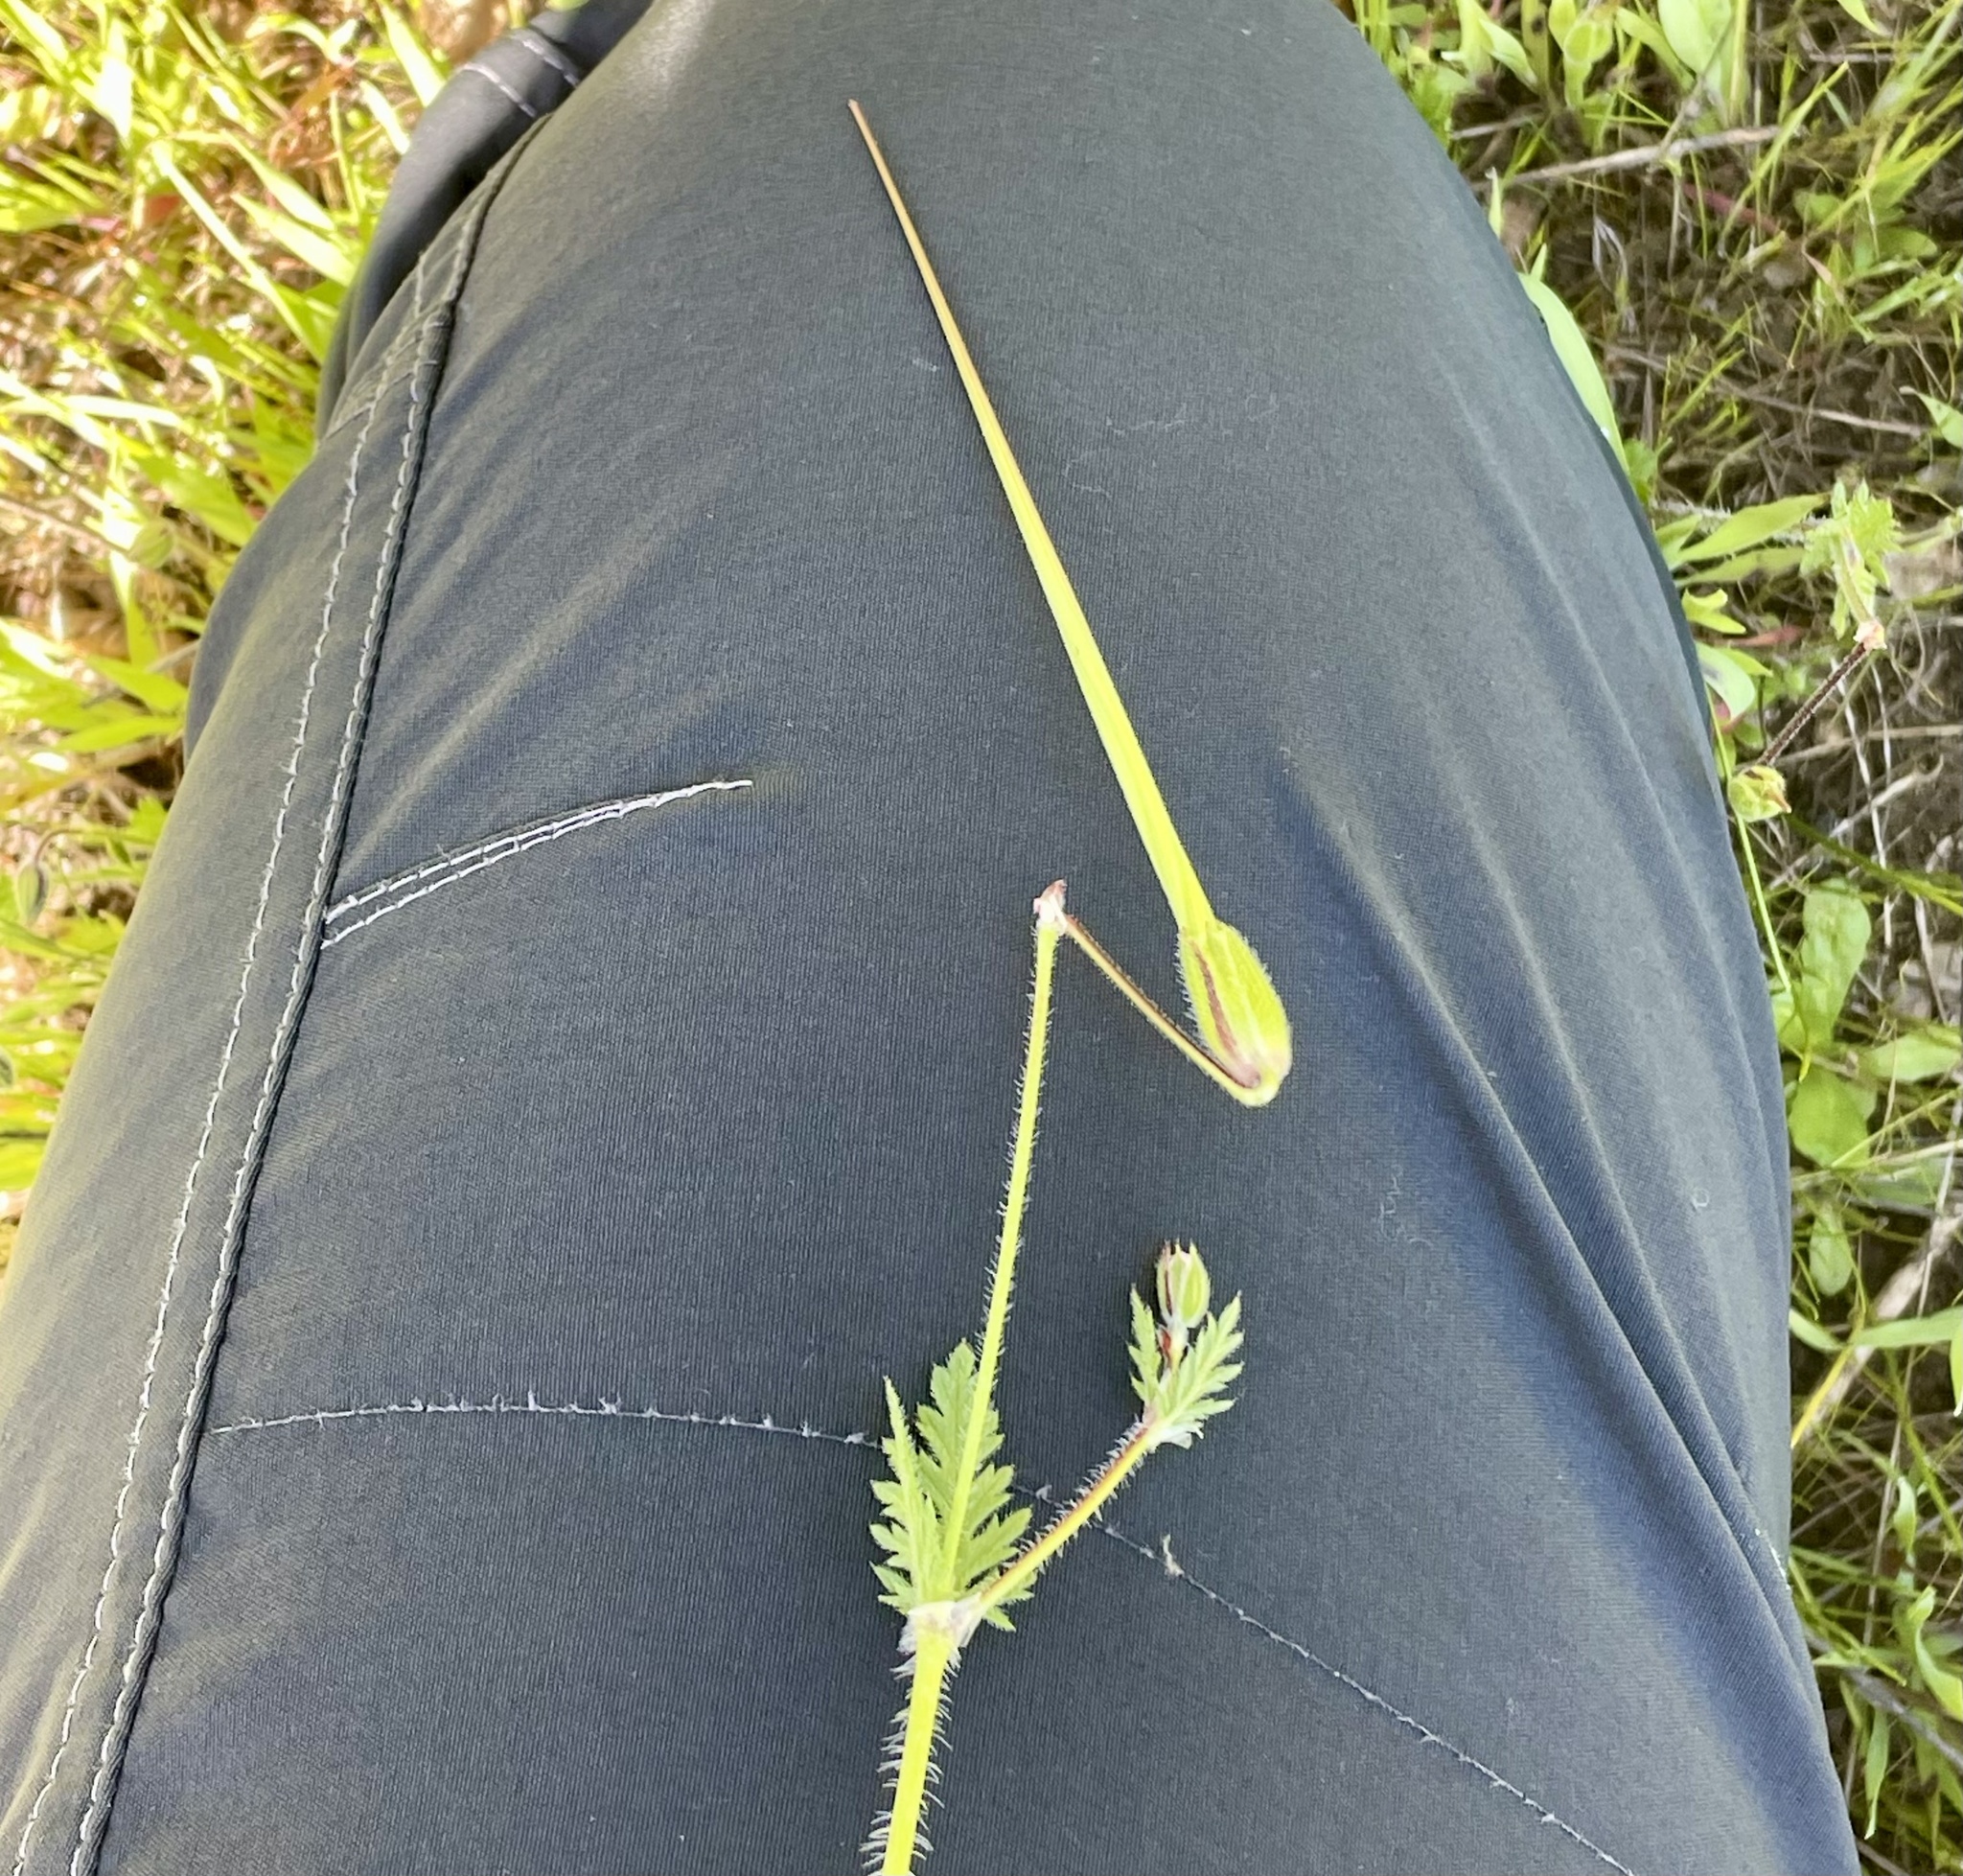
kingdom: Plantae
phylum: Tracheophyta
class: Magnoliopsida
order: Geraniales
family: Geraniaceae
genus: Erodium
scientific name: Erodium botrys
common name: Mediterranean stork's-bill
